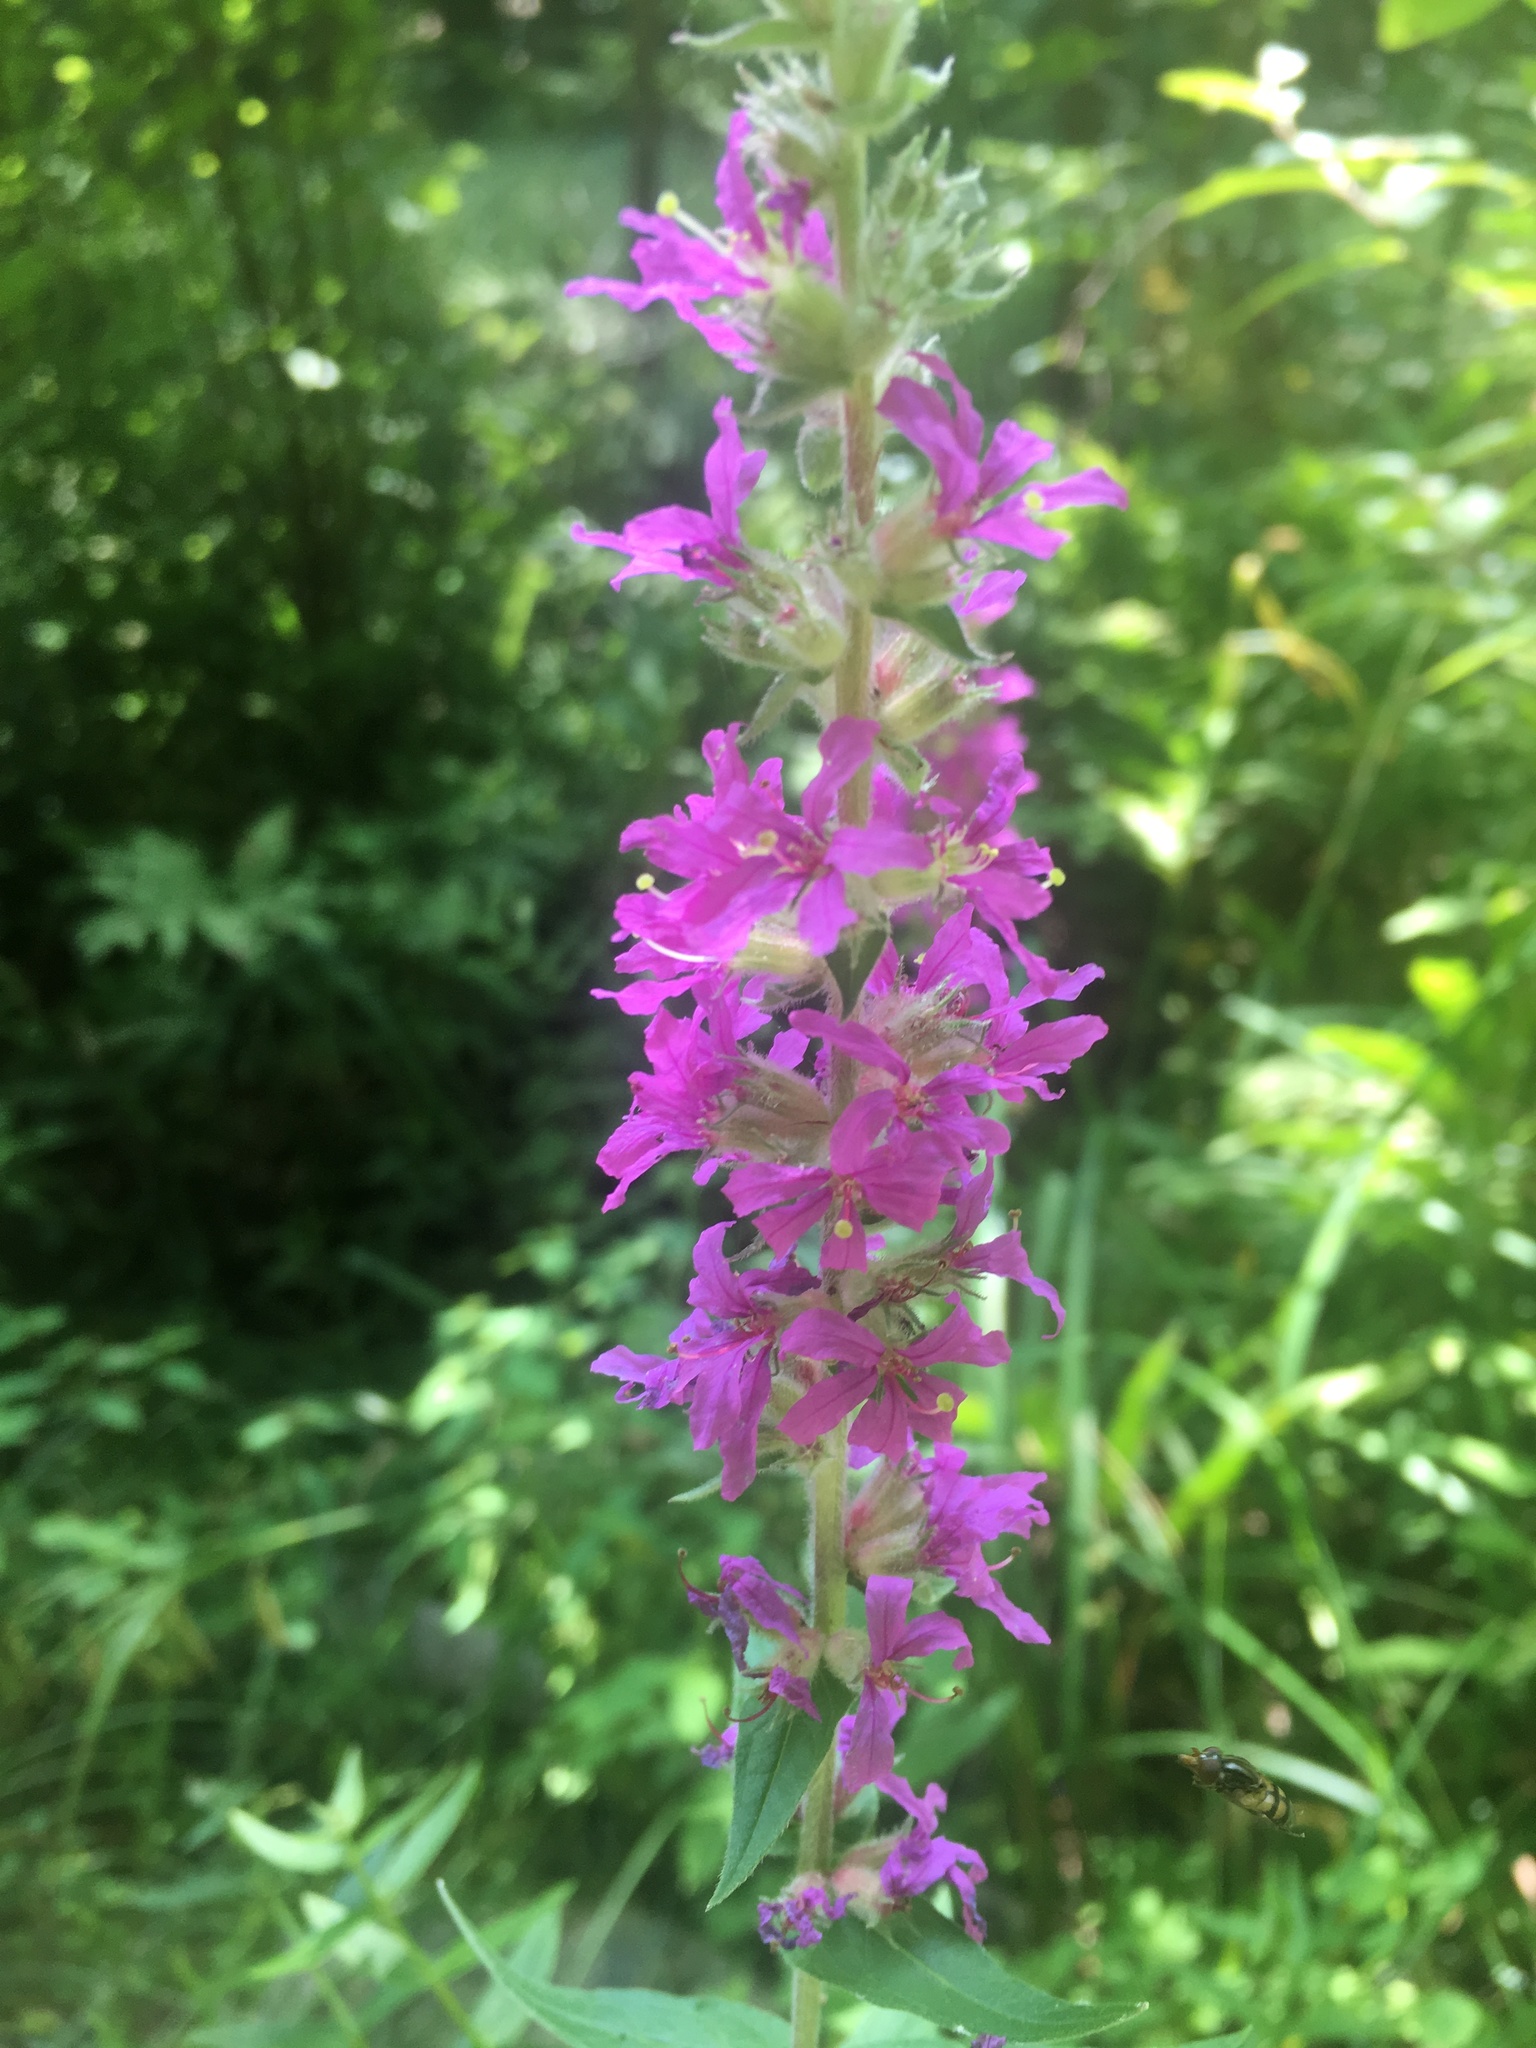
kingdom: Plantae
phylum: Tracheophyta
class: Magnoliopsida
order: Myrtales
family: Lythraceae
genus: Lythrum
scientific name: Lythrum salicaria
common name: Purple loosestrife
